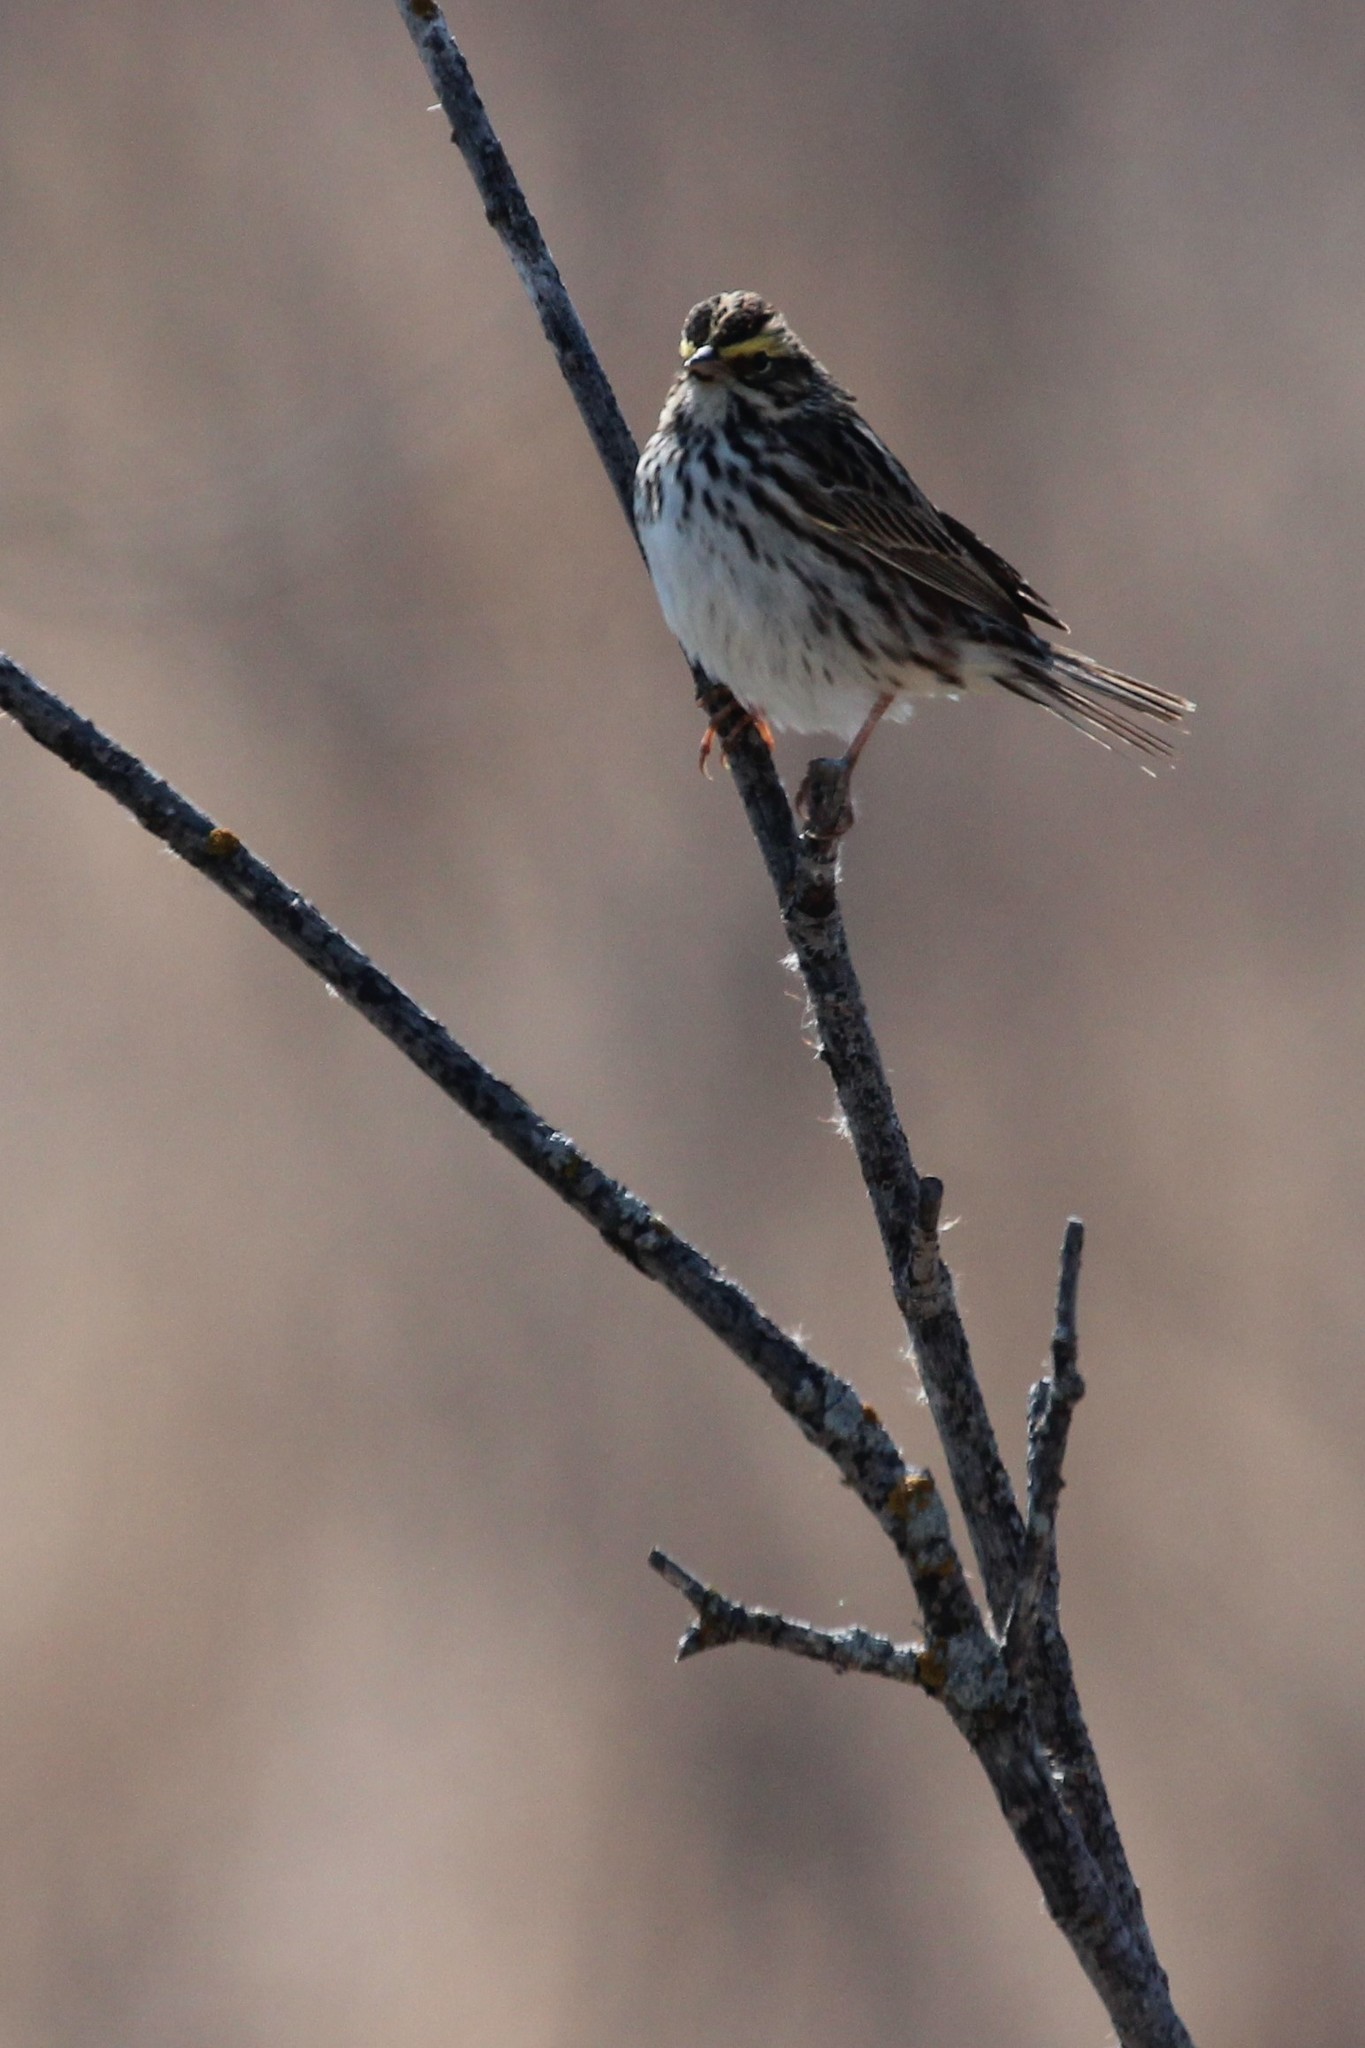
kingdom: Animalia
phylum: Chordata
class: Aves
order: Passeriformes
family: Passerellidae
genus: Passerculus
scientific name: Passerculus sandwichensis
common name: Savannah sparrow
